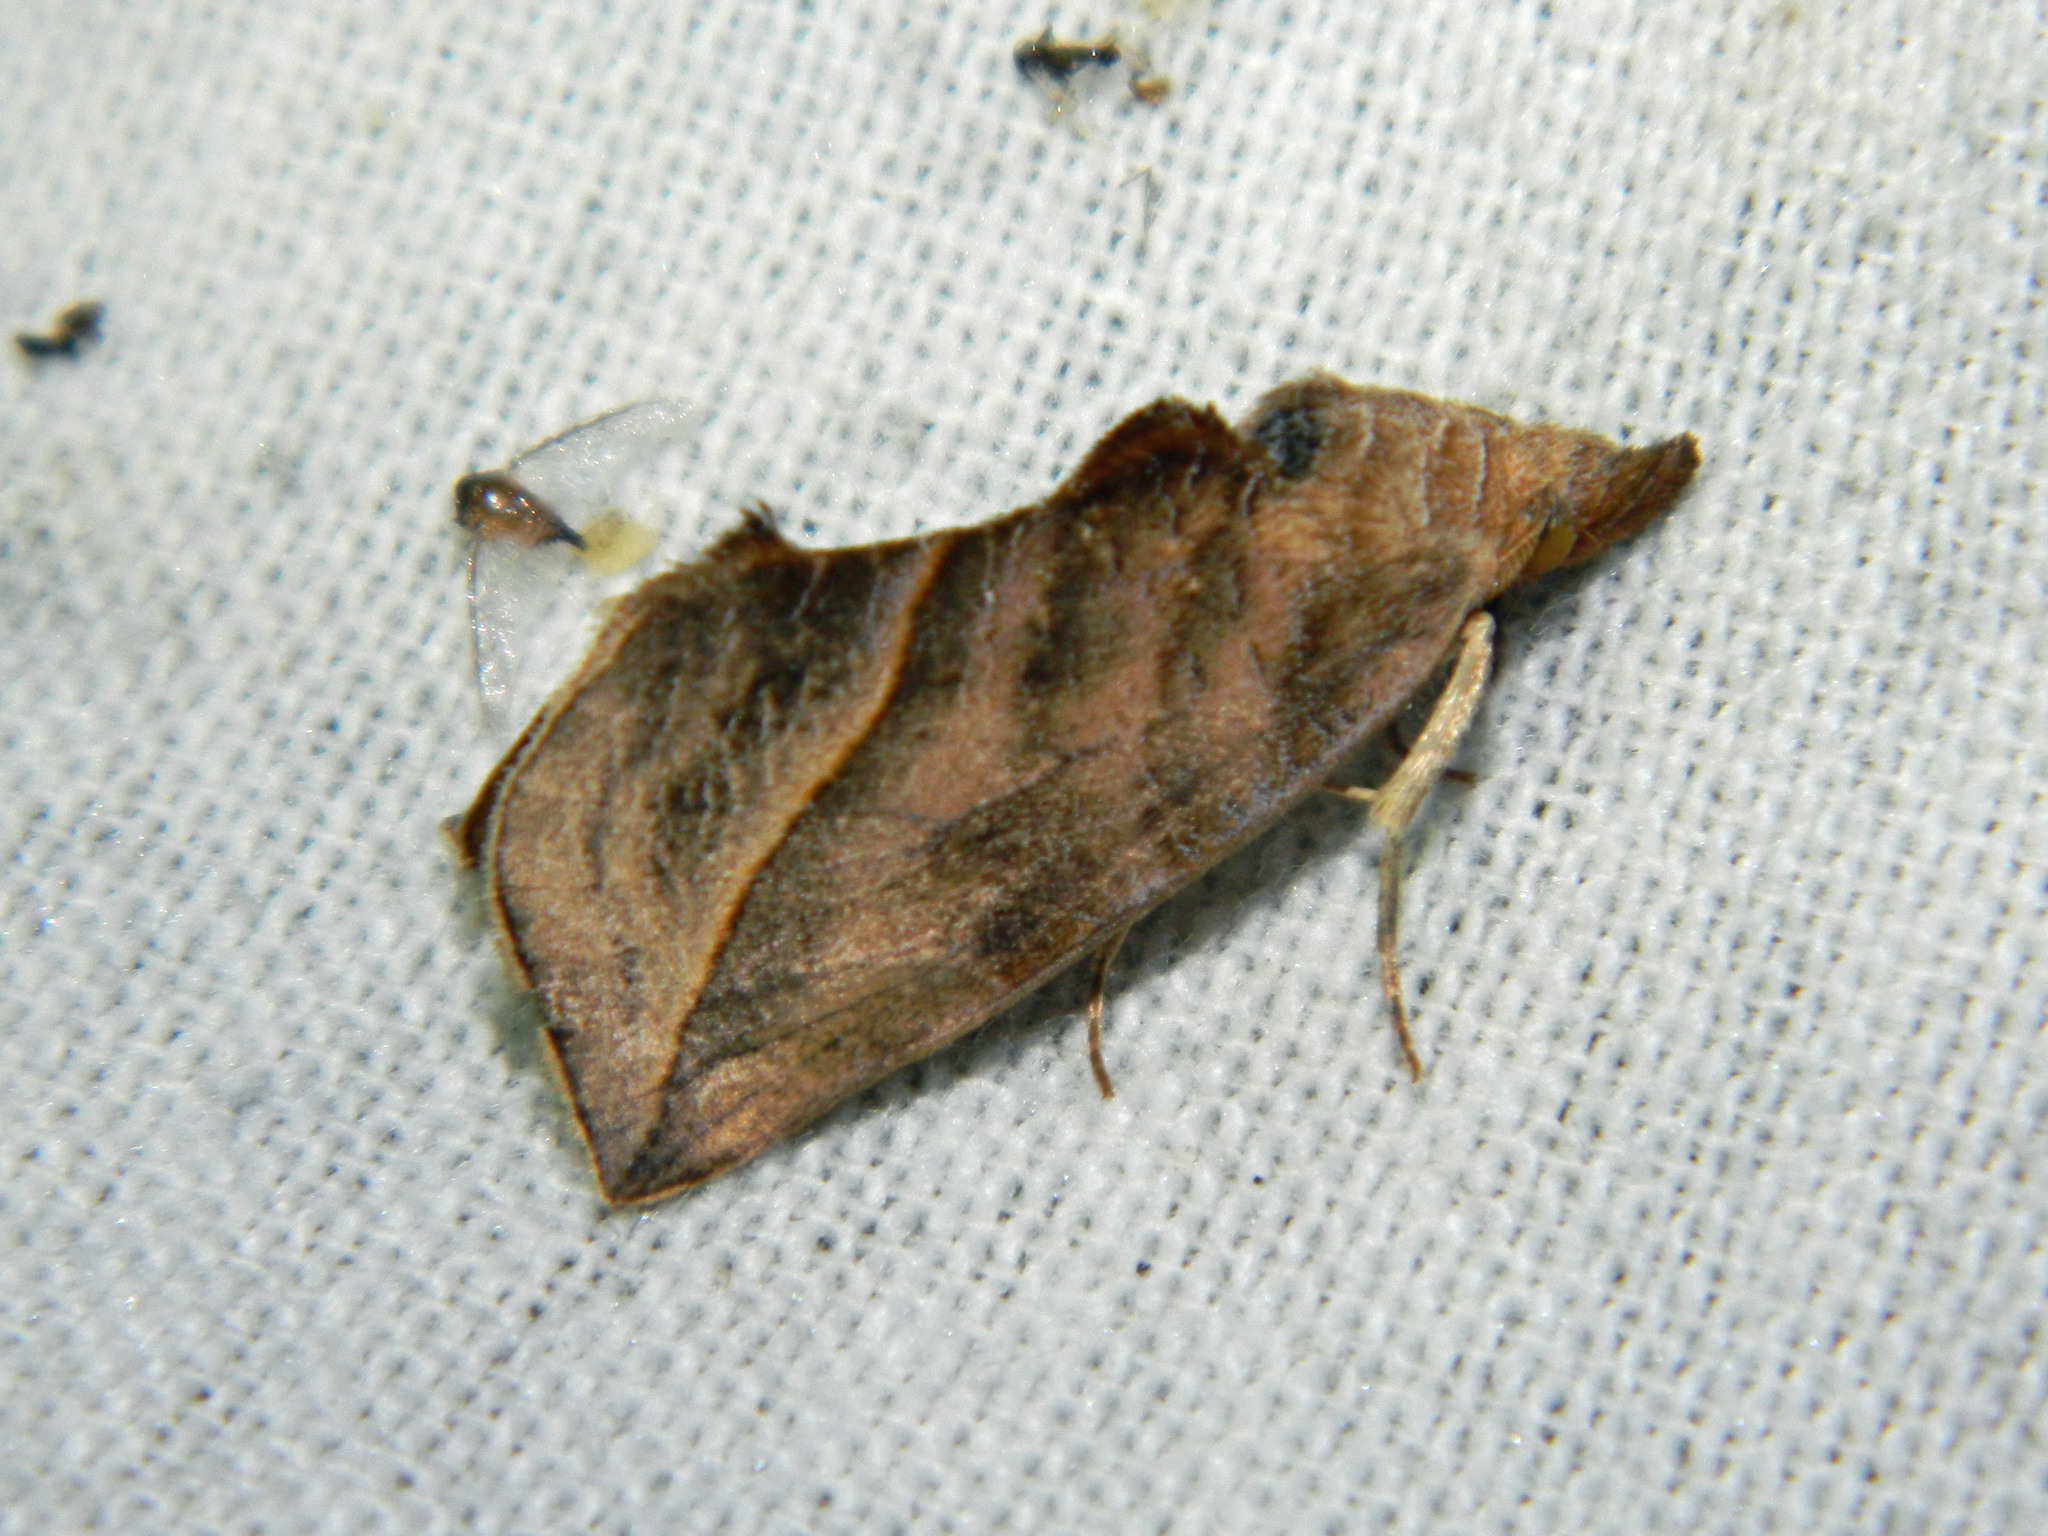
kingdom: Animalia
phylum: Arthropoda
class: Insecta
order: Lepidoptera
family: Erebidae
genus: Calyptra
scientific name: Calyptra canadensis
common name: Canadian owlet
